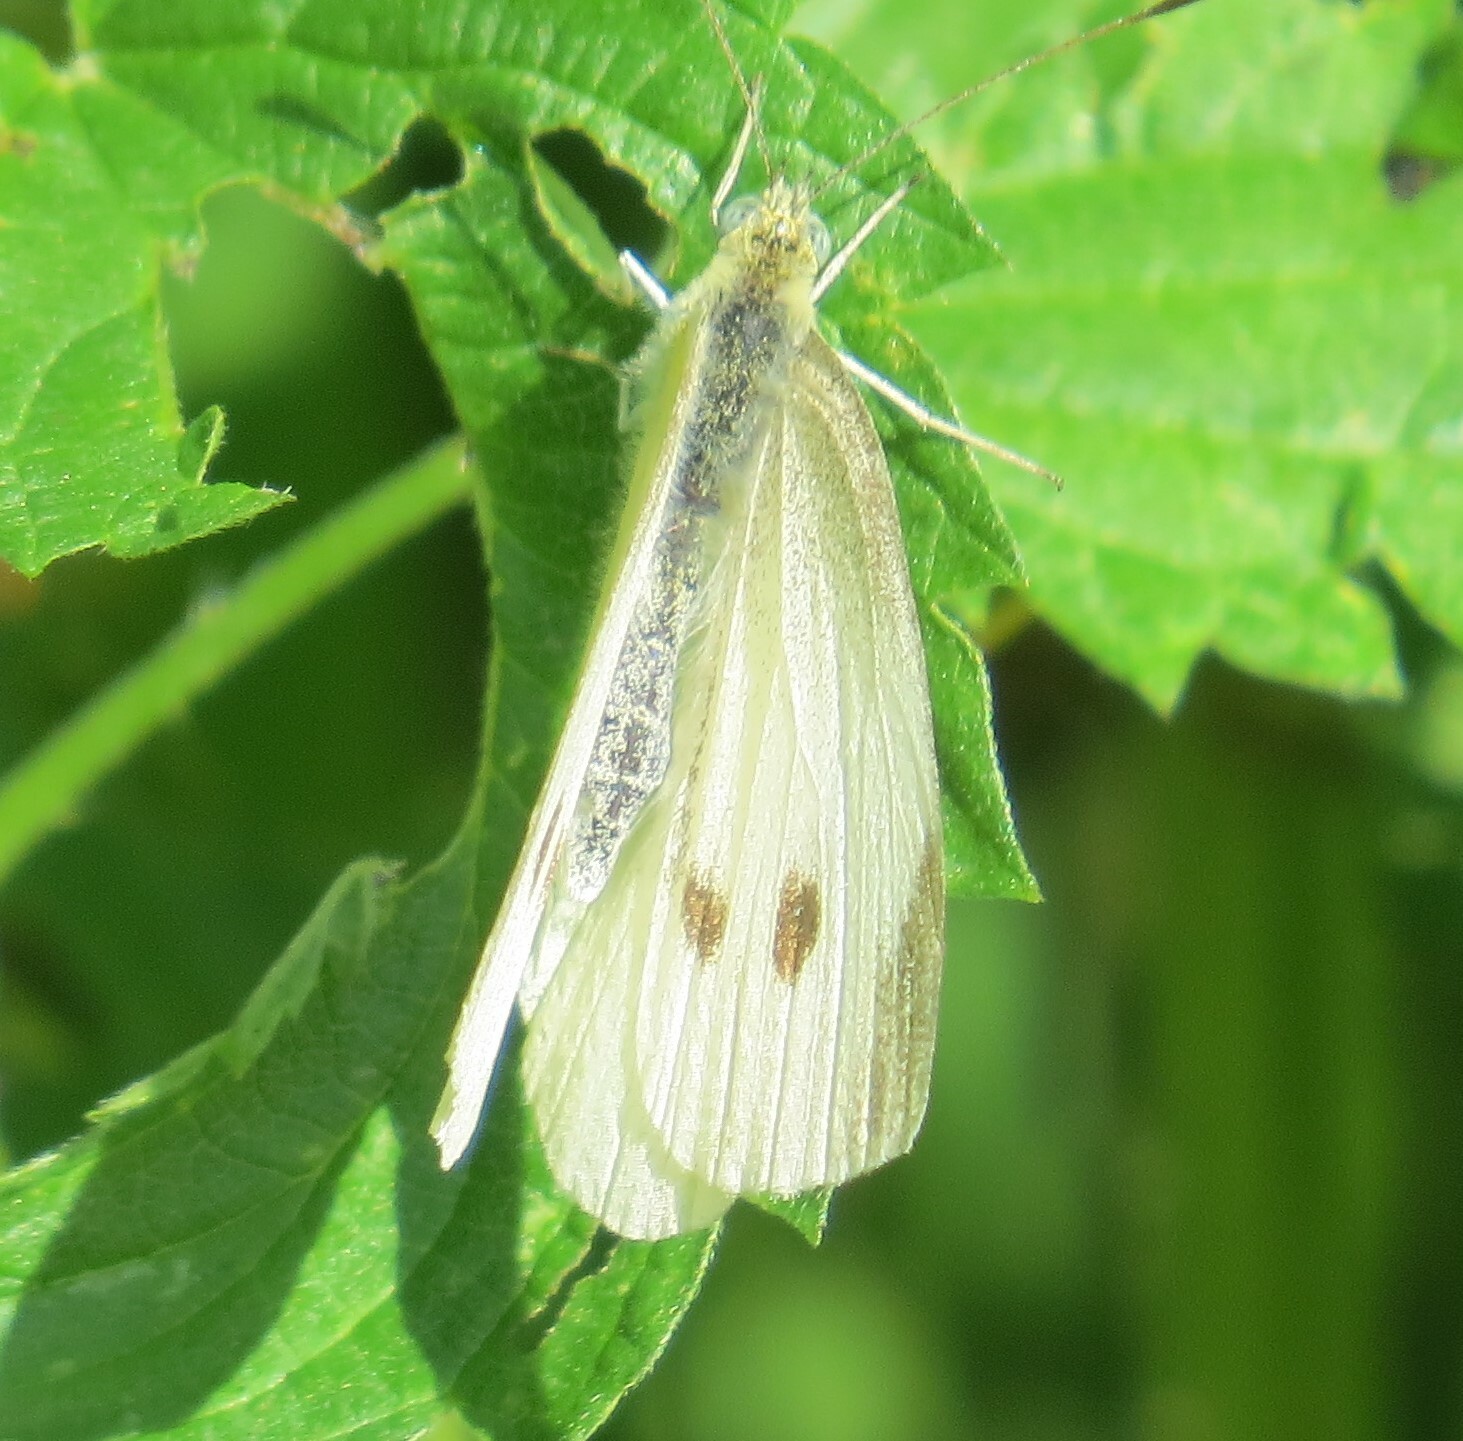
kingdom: Animalia
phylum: Arthropoda
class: Insecta
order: Lepidoptera
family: Pieridae
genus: Pieris
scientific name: Pieris rapae
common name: Small white
